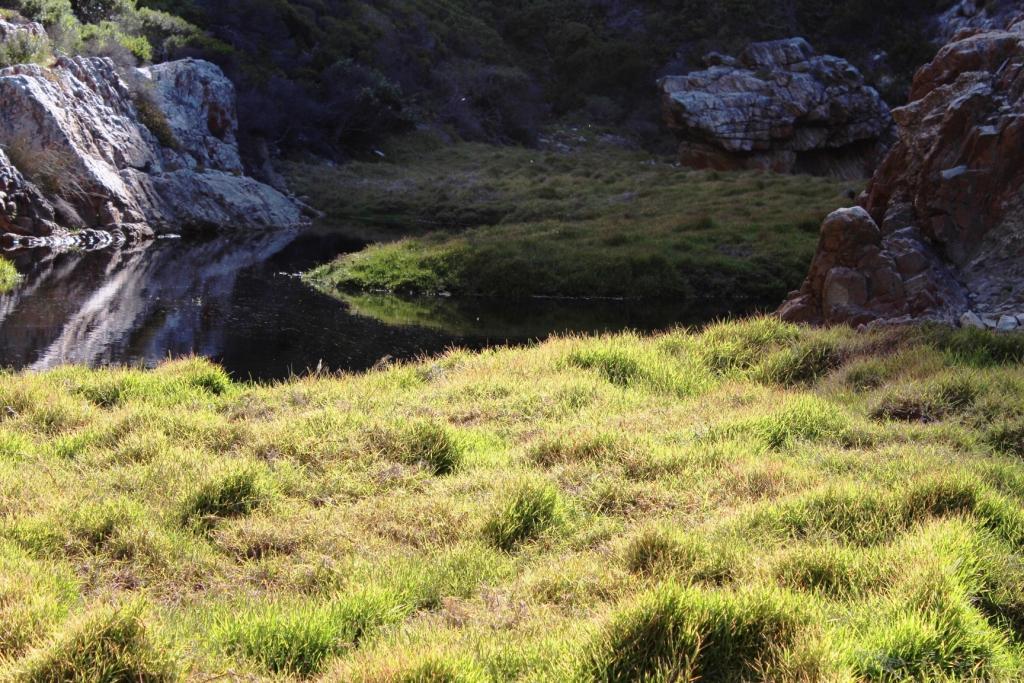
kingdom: Plantae
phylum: Tracheophyta
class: Liliopsida
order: Poales
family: Poaceae
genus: Stenotaphrum
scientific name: Stenotaphrum secundatum
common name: St. augustine grass
